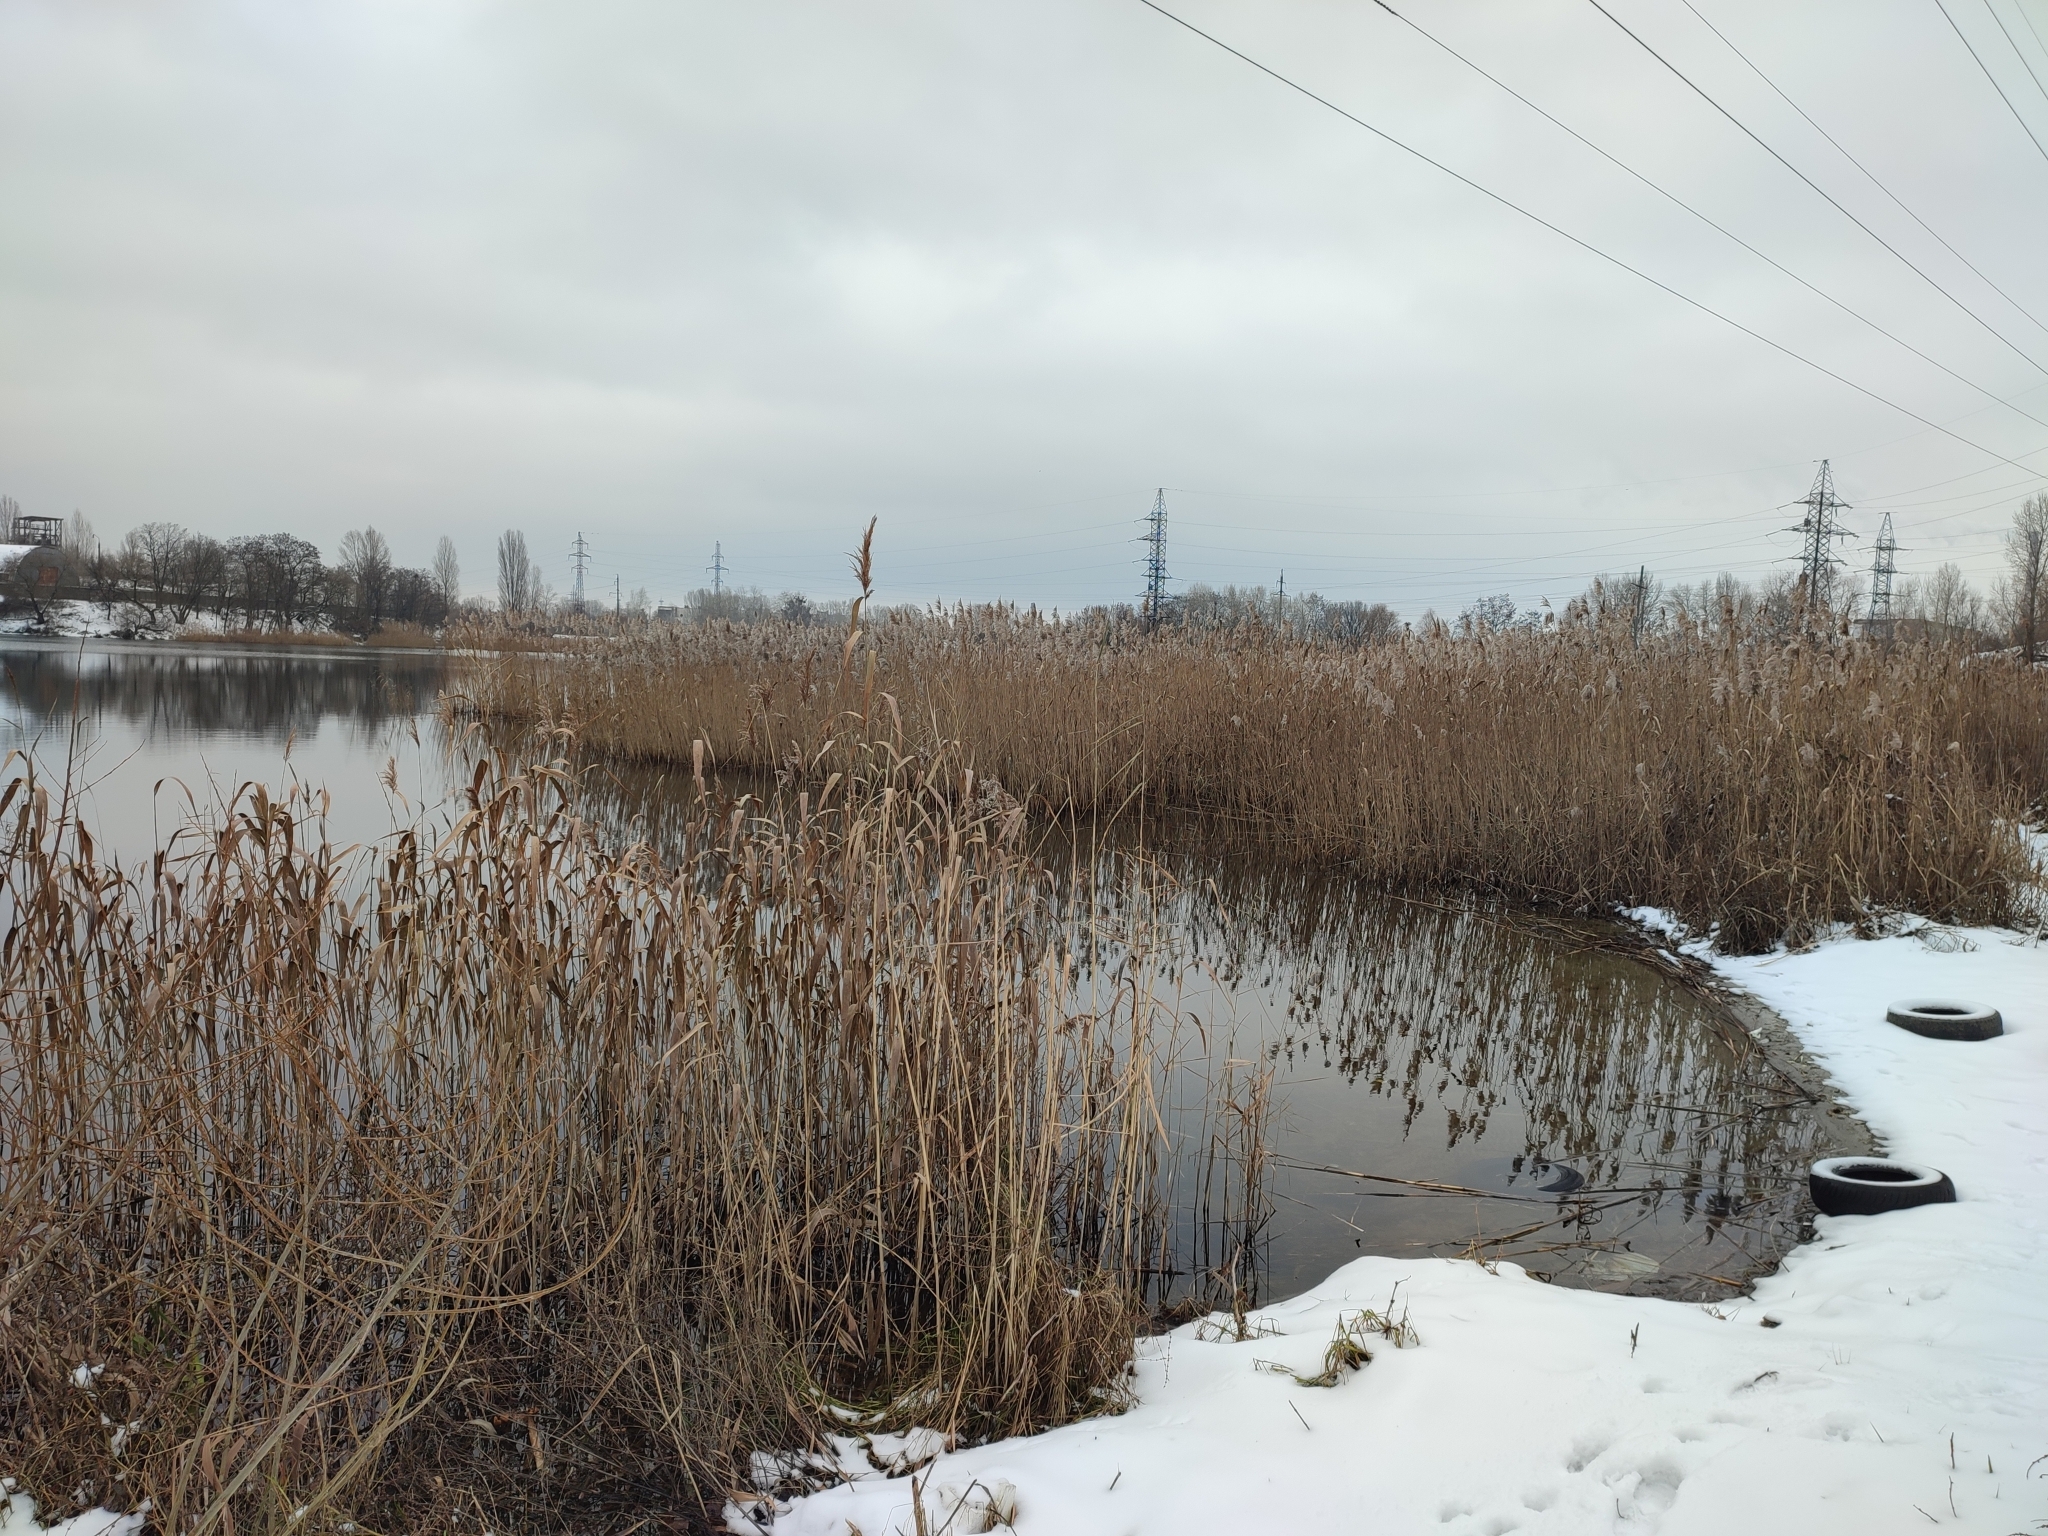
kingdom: Plantae
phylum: Tracheophyta
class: Liliopsida
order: Poales
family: Poaceae
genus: Phragmites
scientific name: Phragmites australis
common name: Common reed
